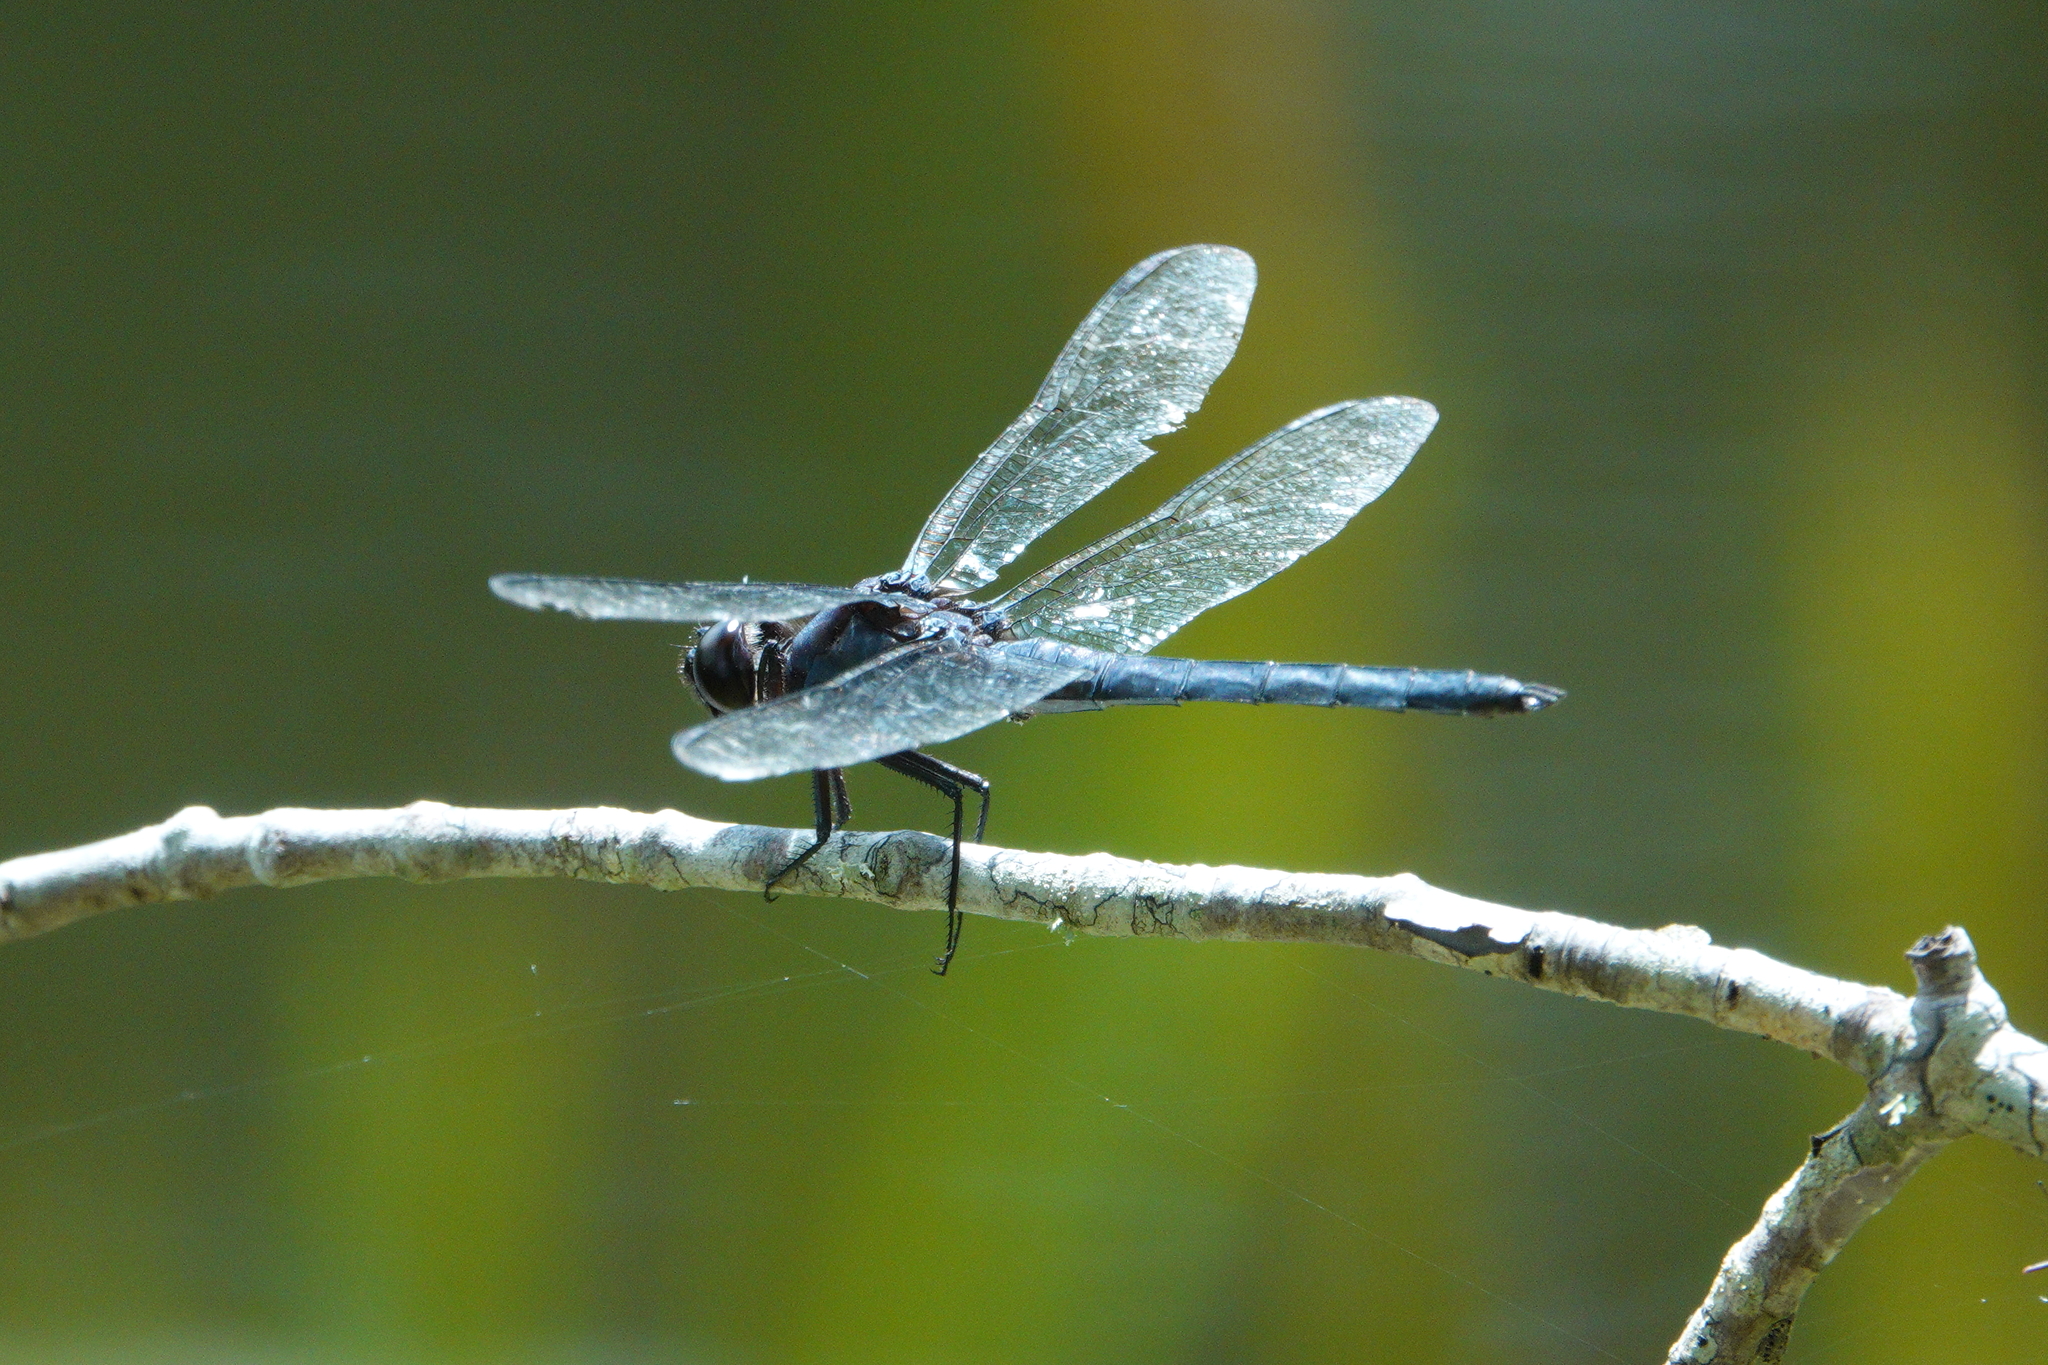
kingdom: Animalia
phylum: Arthropoda
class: Insecta
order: Odonata
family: Libellulidae
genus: Libellula
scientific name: Libellula incesta
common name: Slaty skimmer
